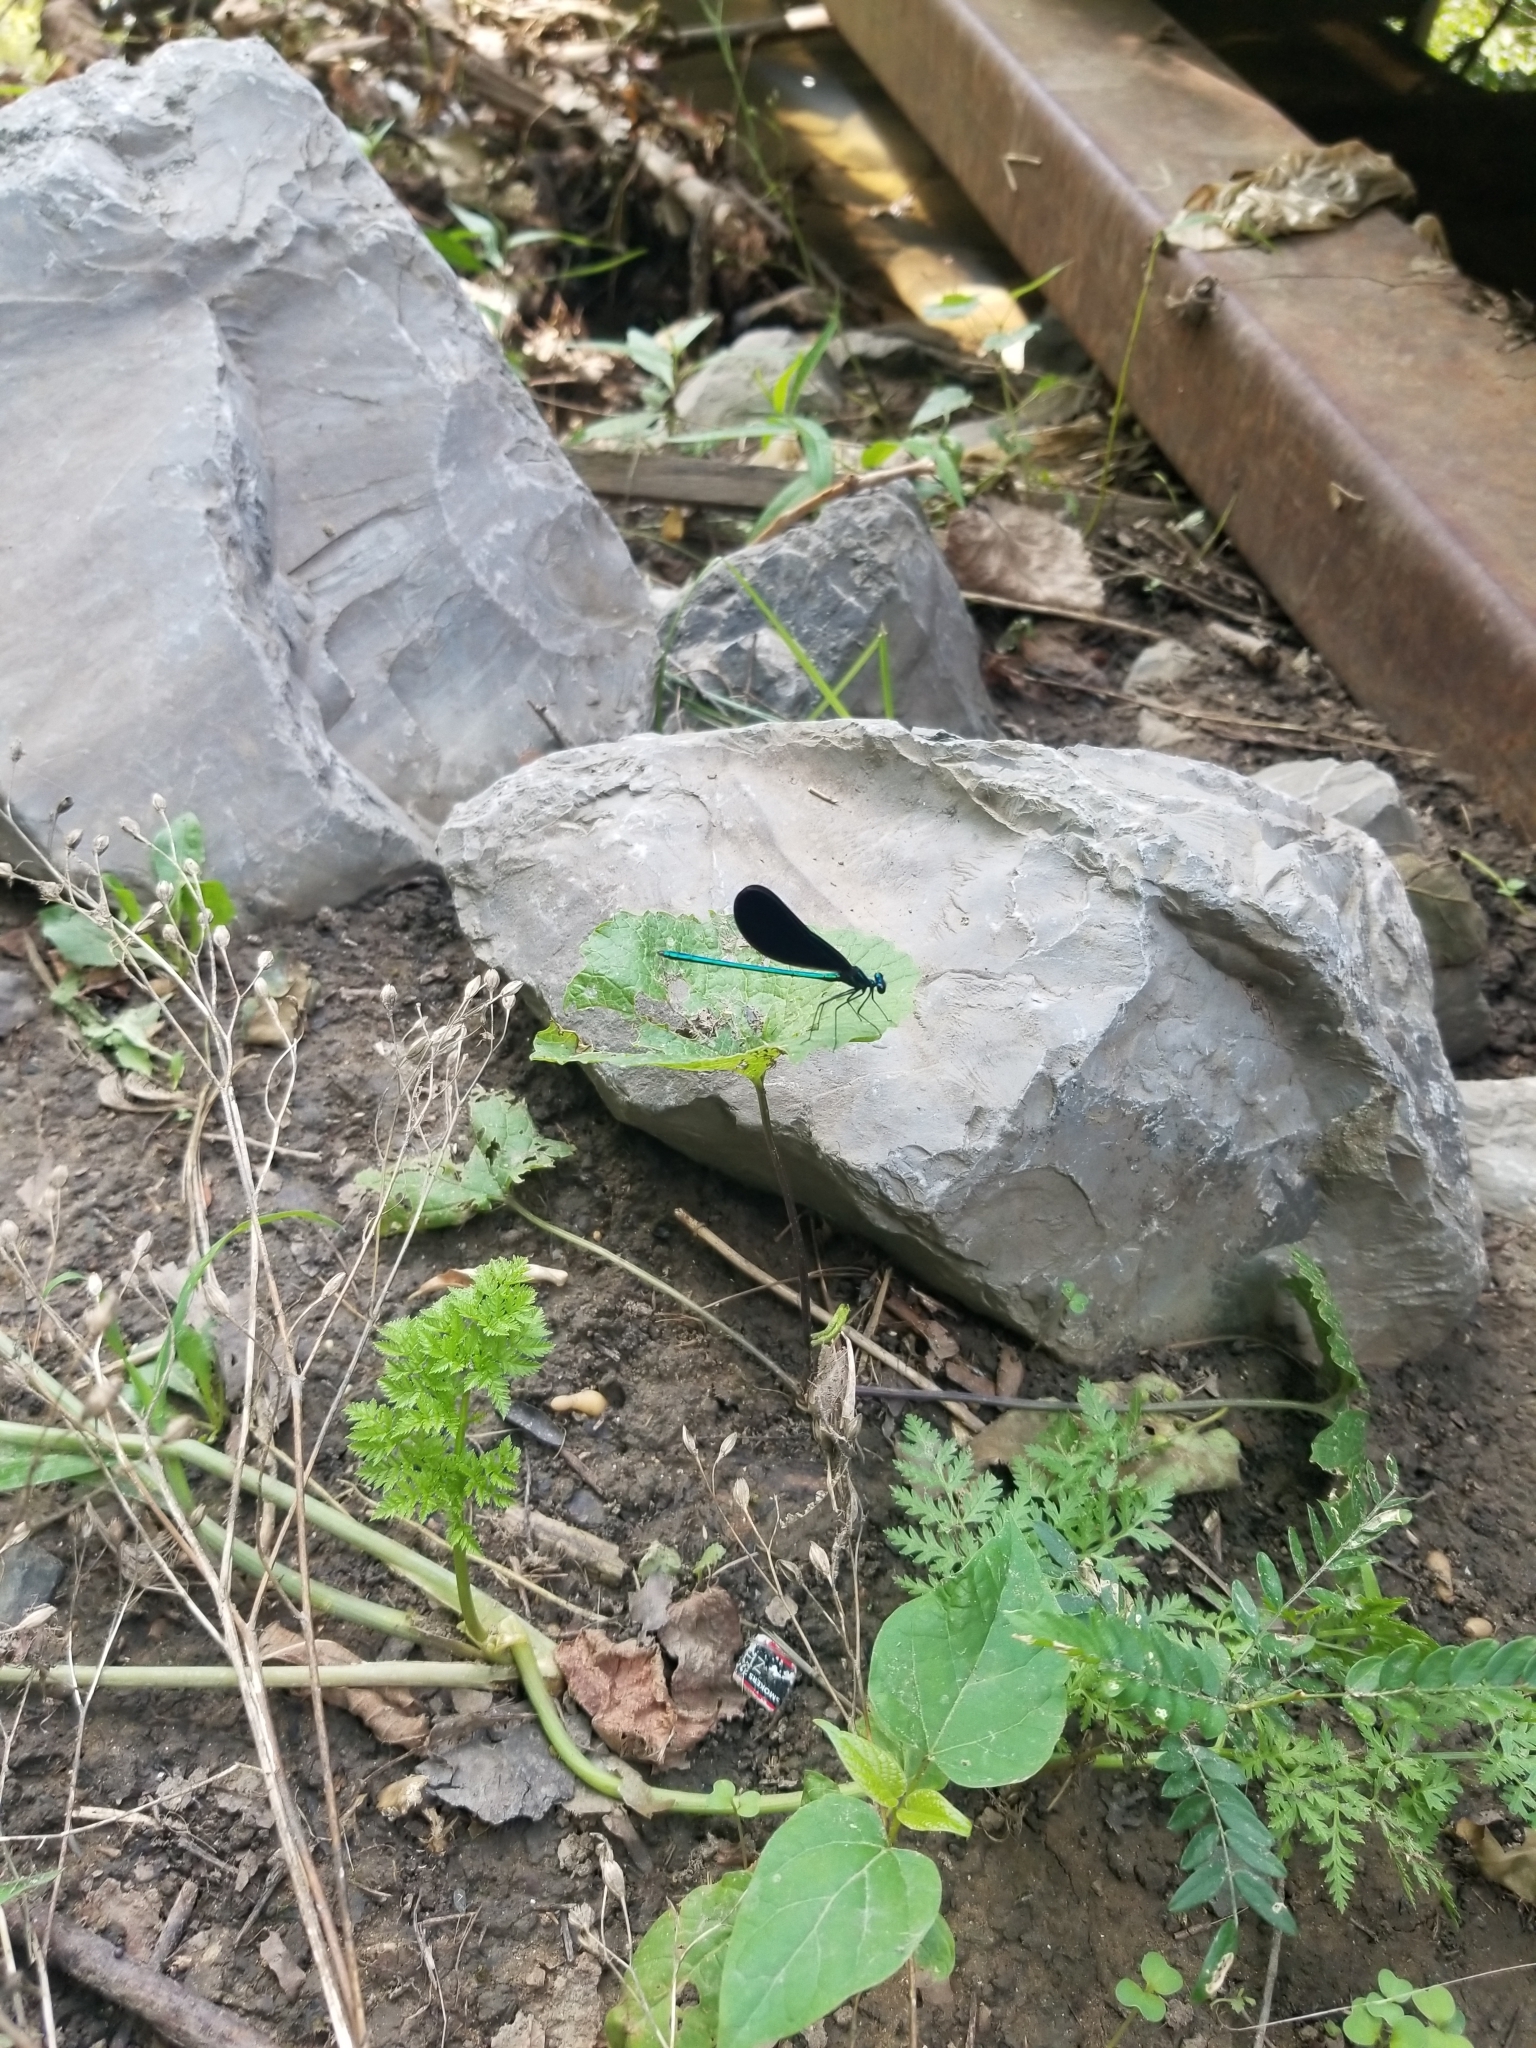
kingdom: Animalia
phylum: Arthropoda
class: Insecta
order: Odonata
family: Calopterygidae
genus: Calopteryx
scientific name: Calopteryx maculata
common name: Ebony jewelwing
